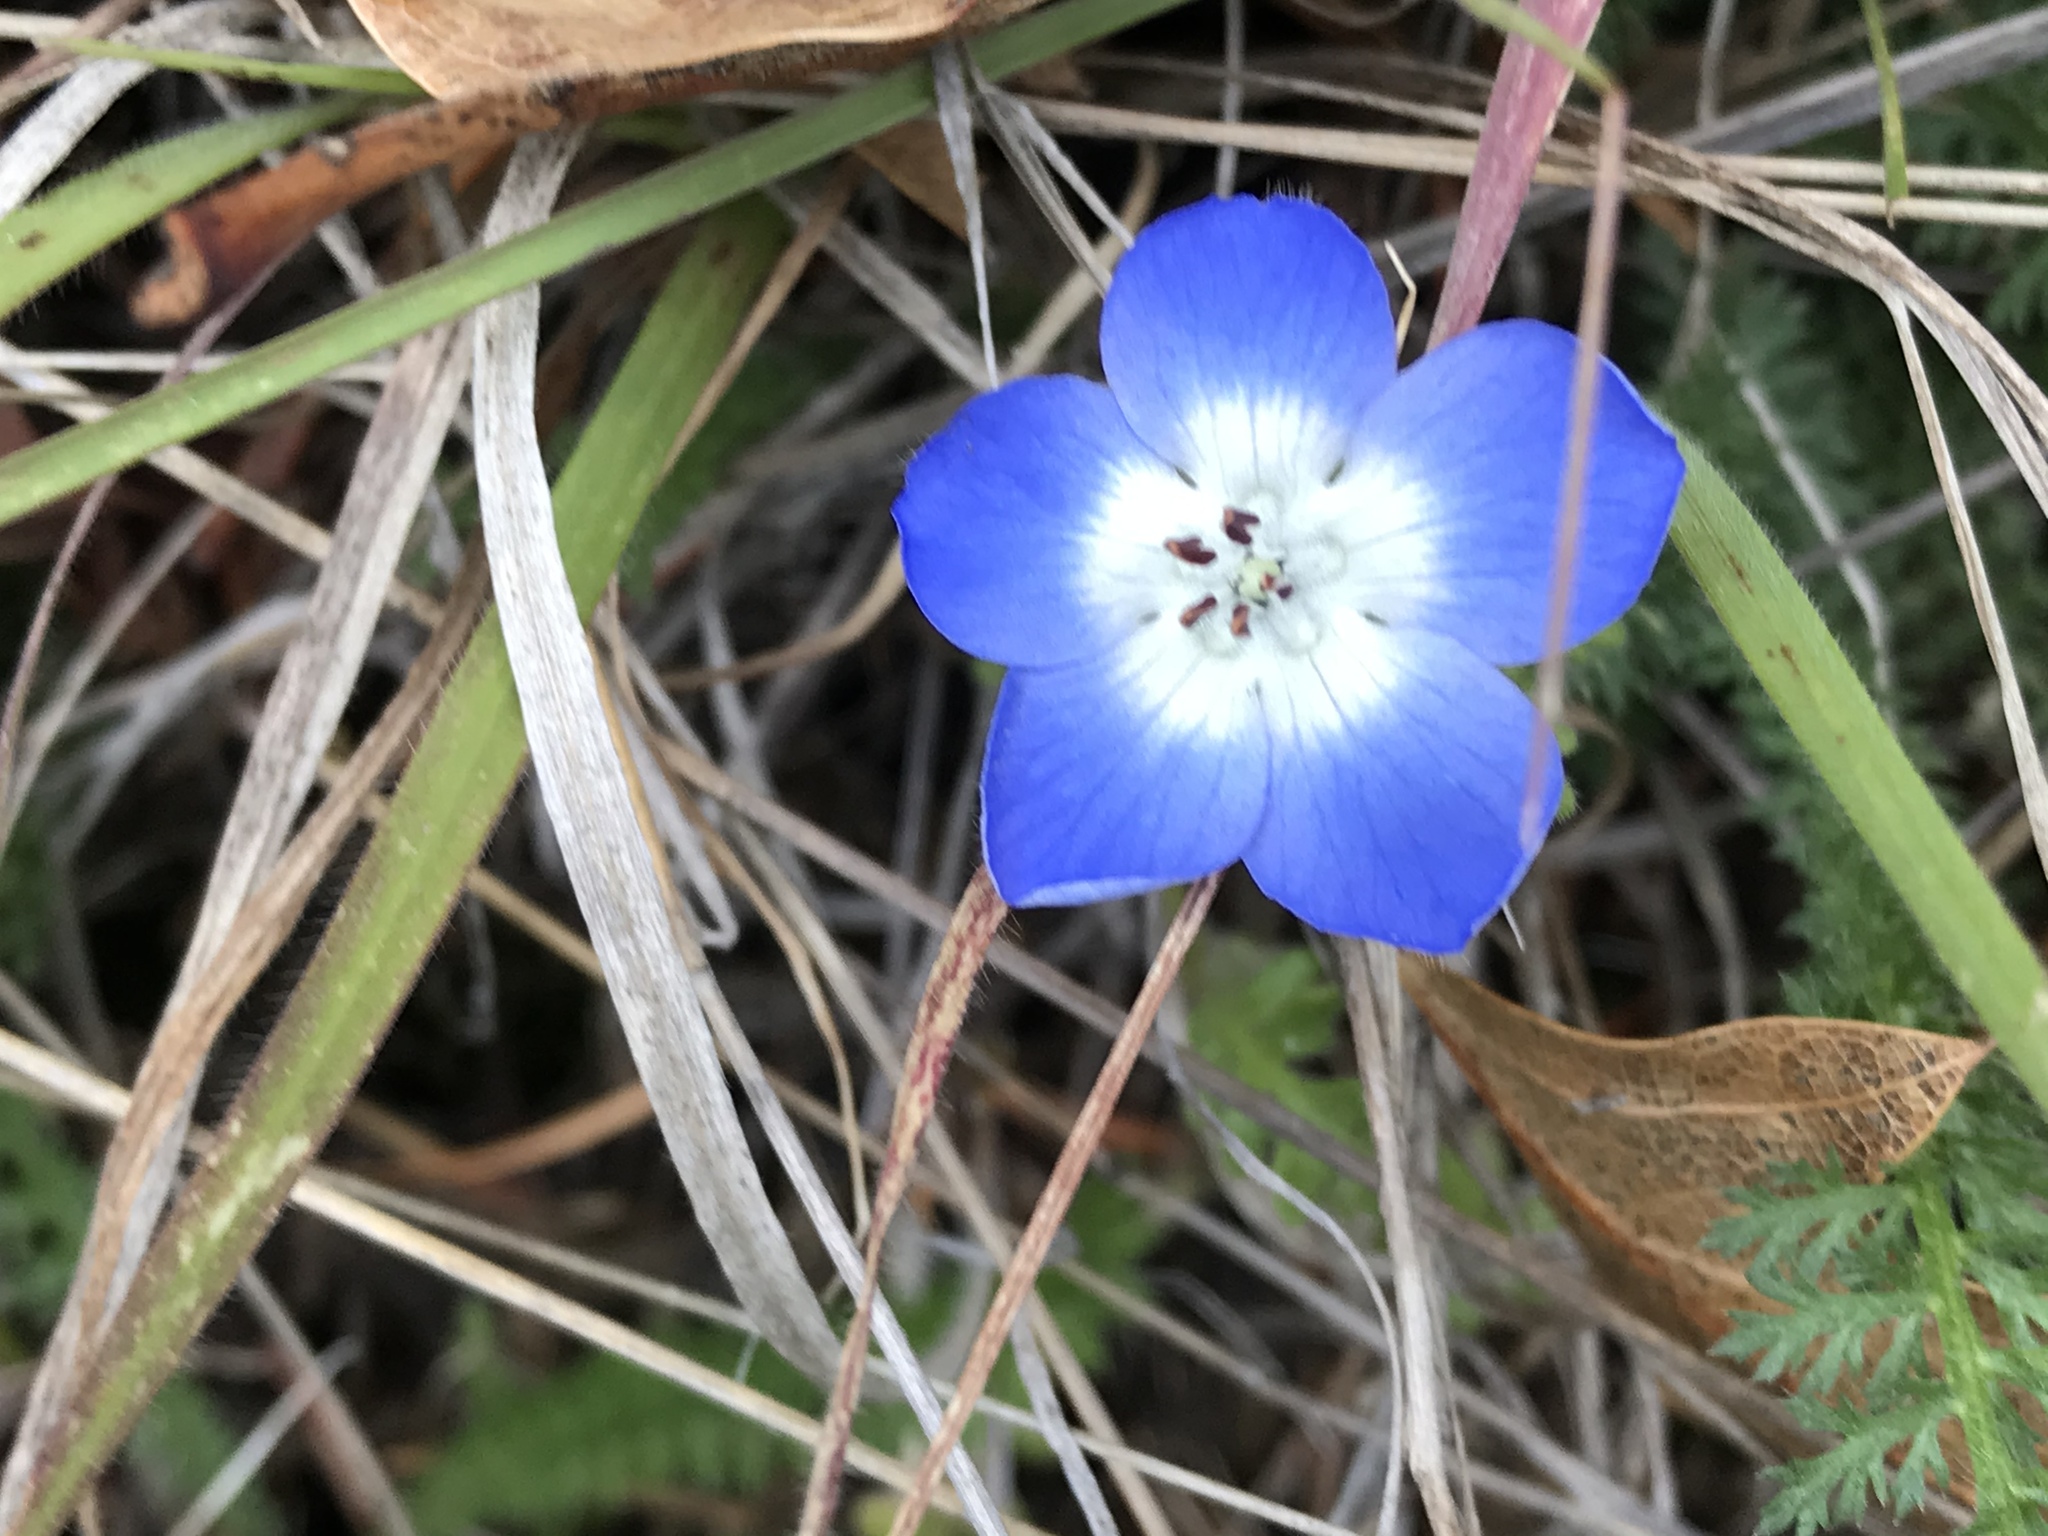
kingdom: Plantae
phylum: Tracheophyta
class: Magnoliopsida
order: Boraginales
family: Hydrophyllaceae
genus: Nemophila
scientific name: Nemophila menziesii
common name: Baby's-blue-eyes
